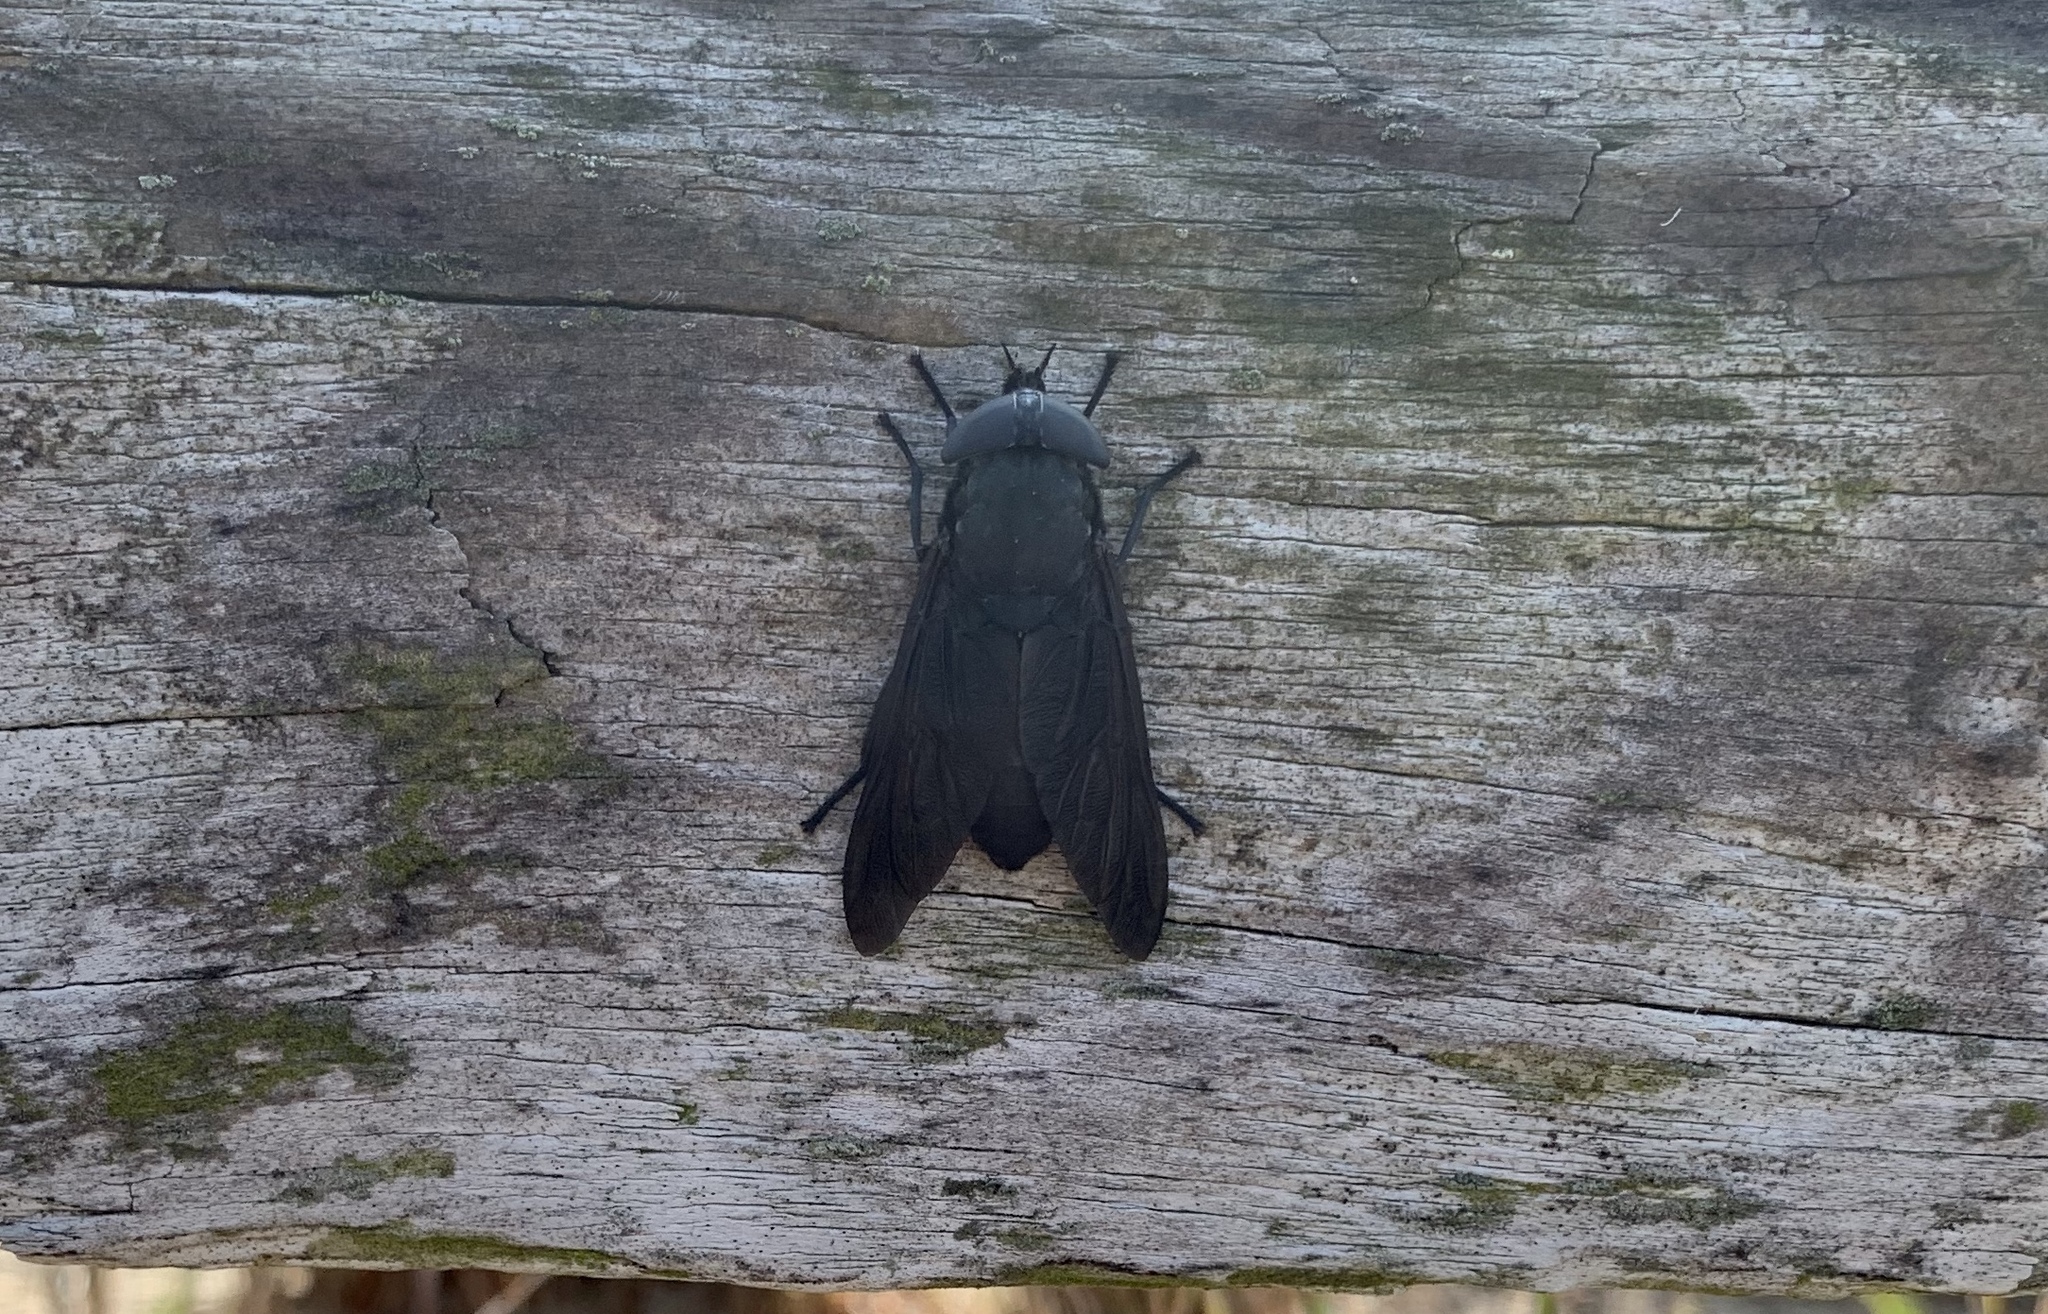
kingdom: Animalia
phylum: Arthropoda
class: Insecta
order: Diptera
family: Tabanidae
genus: Tabanus
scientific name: Tabanus atratus
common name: Black horse fly
